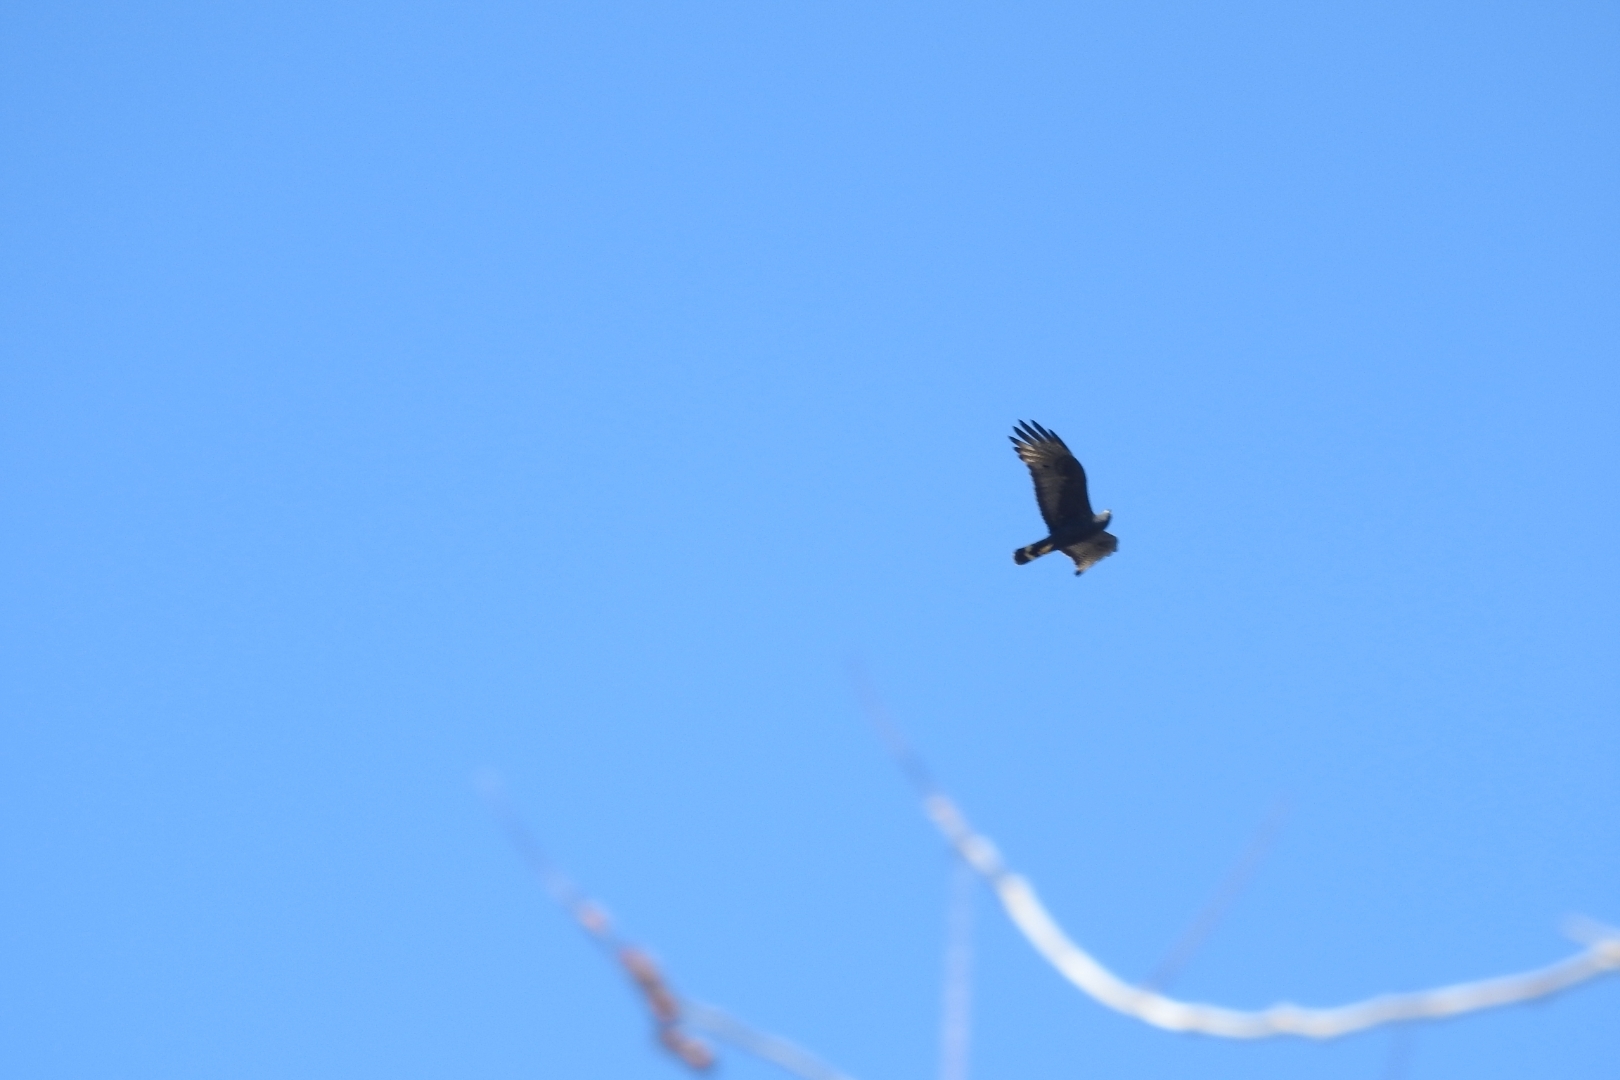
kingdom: Animalia
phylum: Chordata
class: Aves
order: Accipitriformes
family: Accipitridae
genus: Buteo
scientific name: Buteo albonotatus
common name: Zone-tailed hawk
